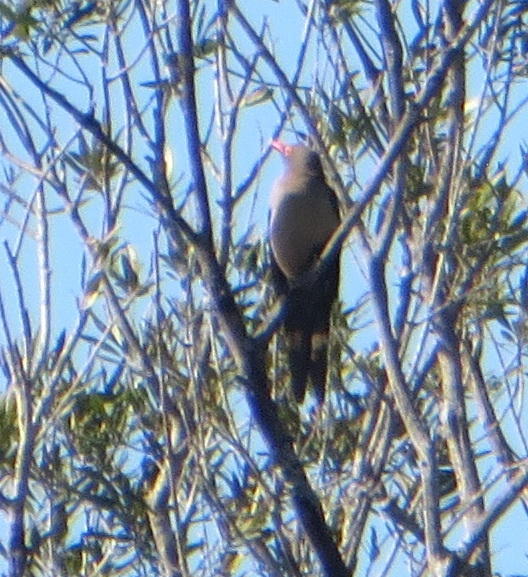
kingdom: Animalia
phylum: Chordata
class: Aves
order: Passeriformes
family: Buphagidae
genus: Buphagus
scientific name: Buphagus erythrorhynchus
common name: Red-billed oxpecker
